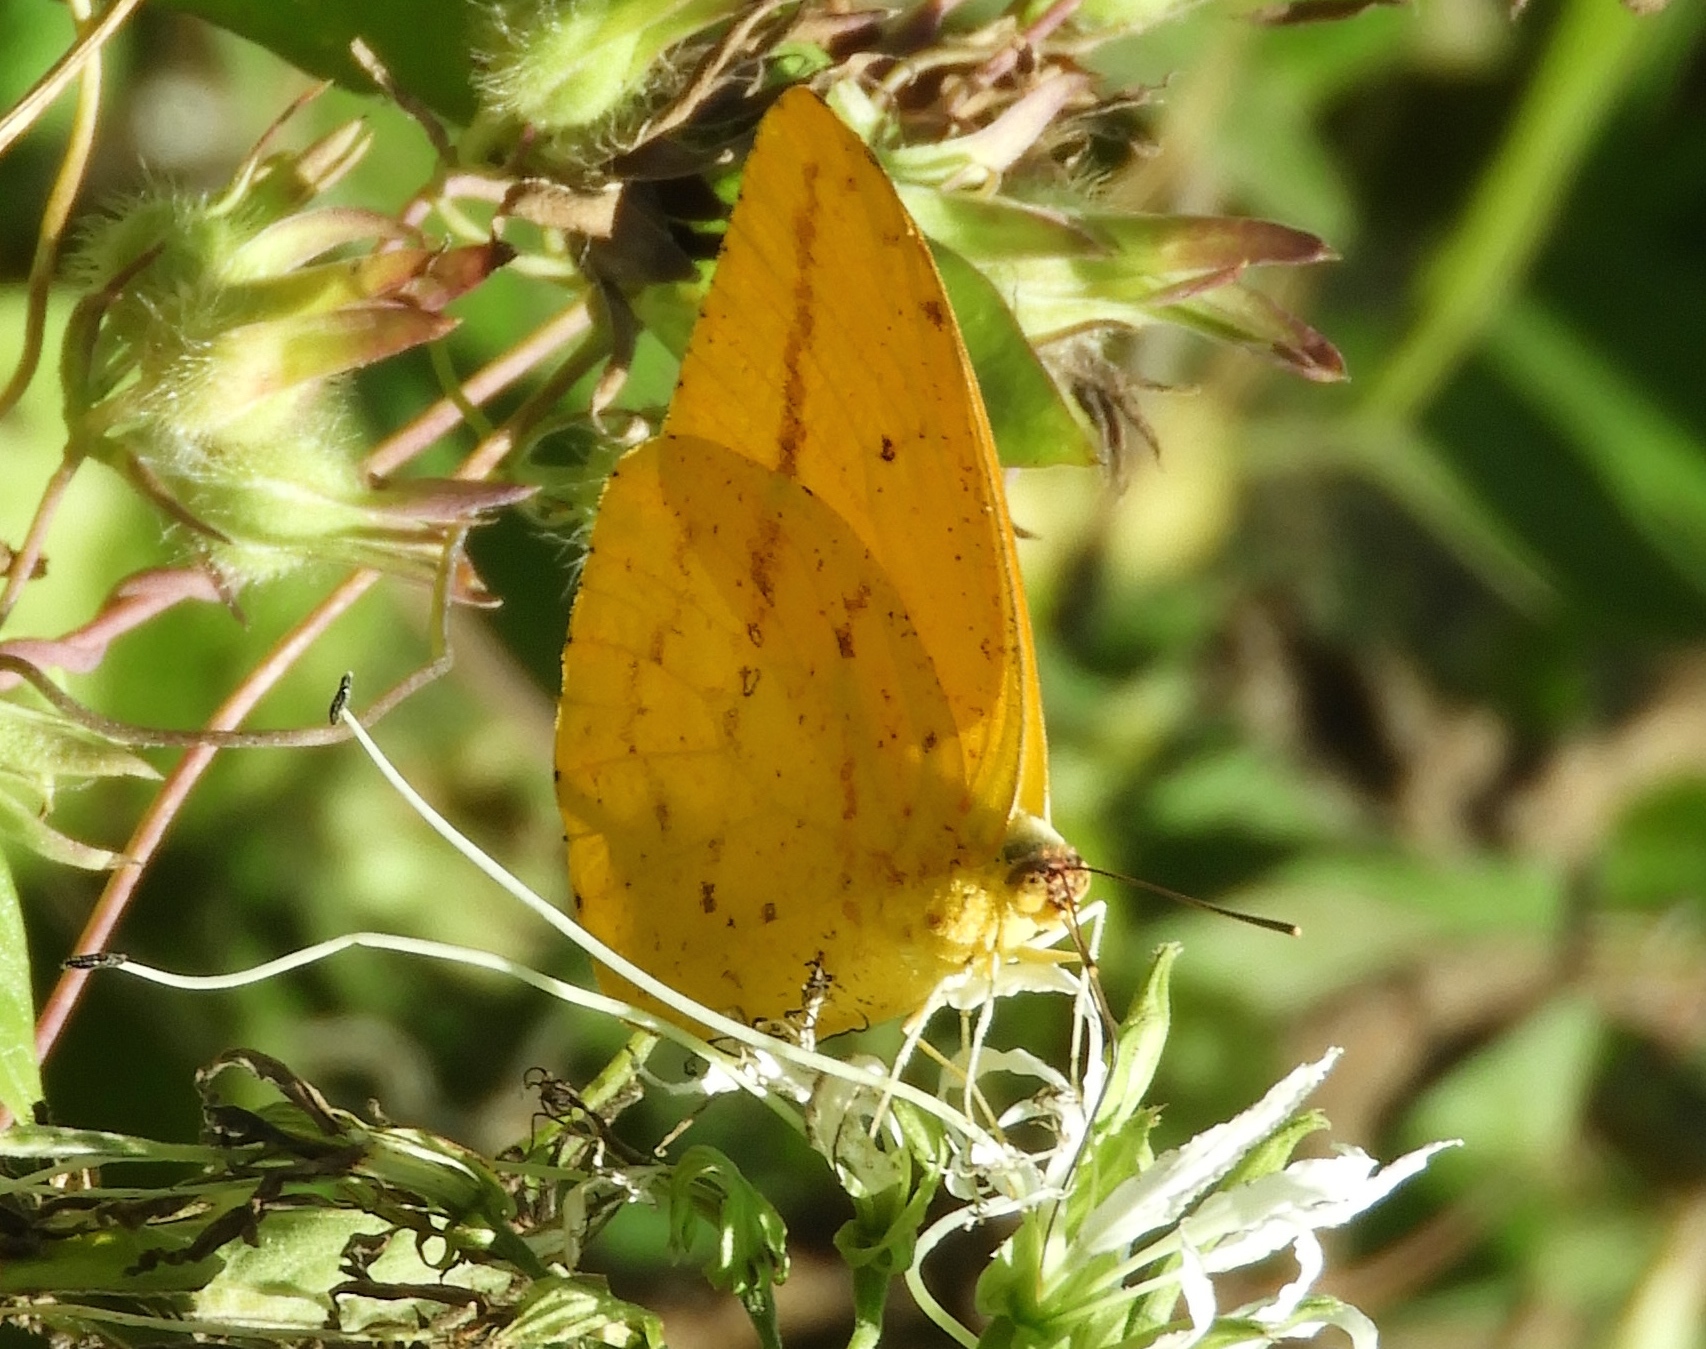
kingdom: Animalia
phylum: Arthropoda
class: Insecta
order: Lepidoptera
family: Pieridae
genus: Phoebis
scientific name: Phoebis agarithe
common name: Large orange sulphur
